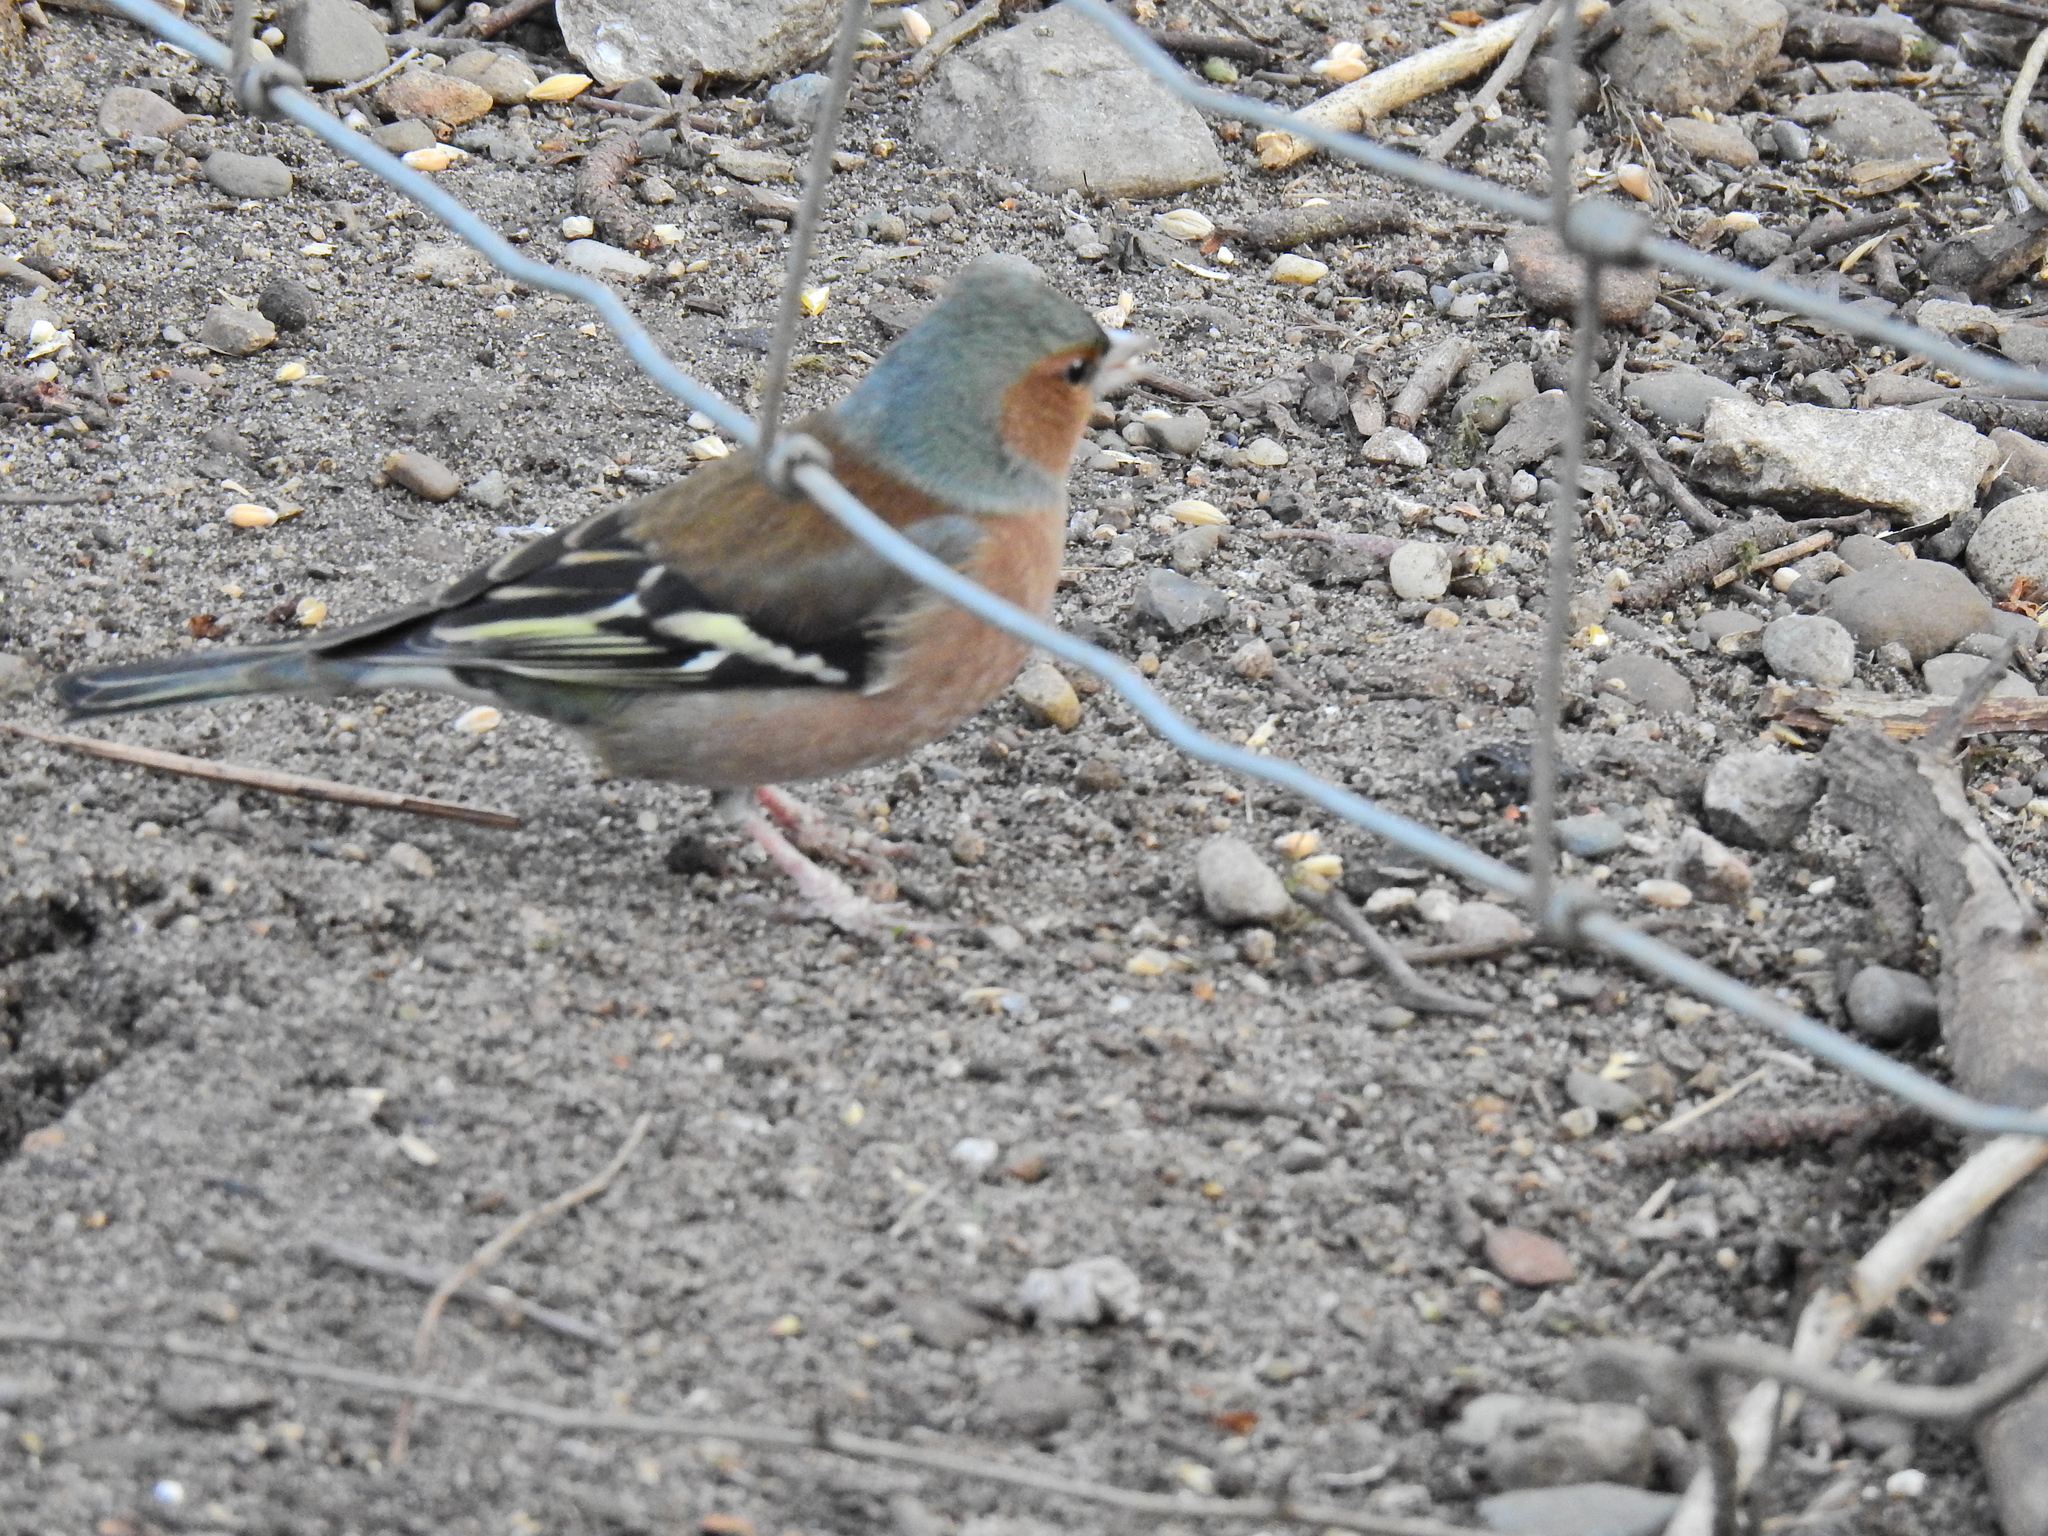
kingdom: Animalia
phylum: Chordata
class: Aves
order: Passeriformes
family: Fringillidae
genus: Fringilla
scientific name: Fringilla coelebs
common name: Common chaffinch
